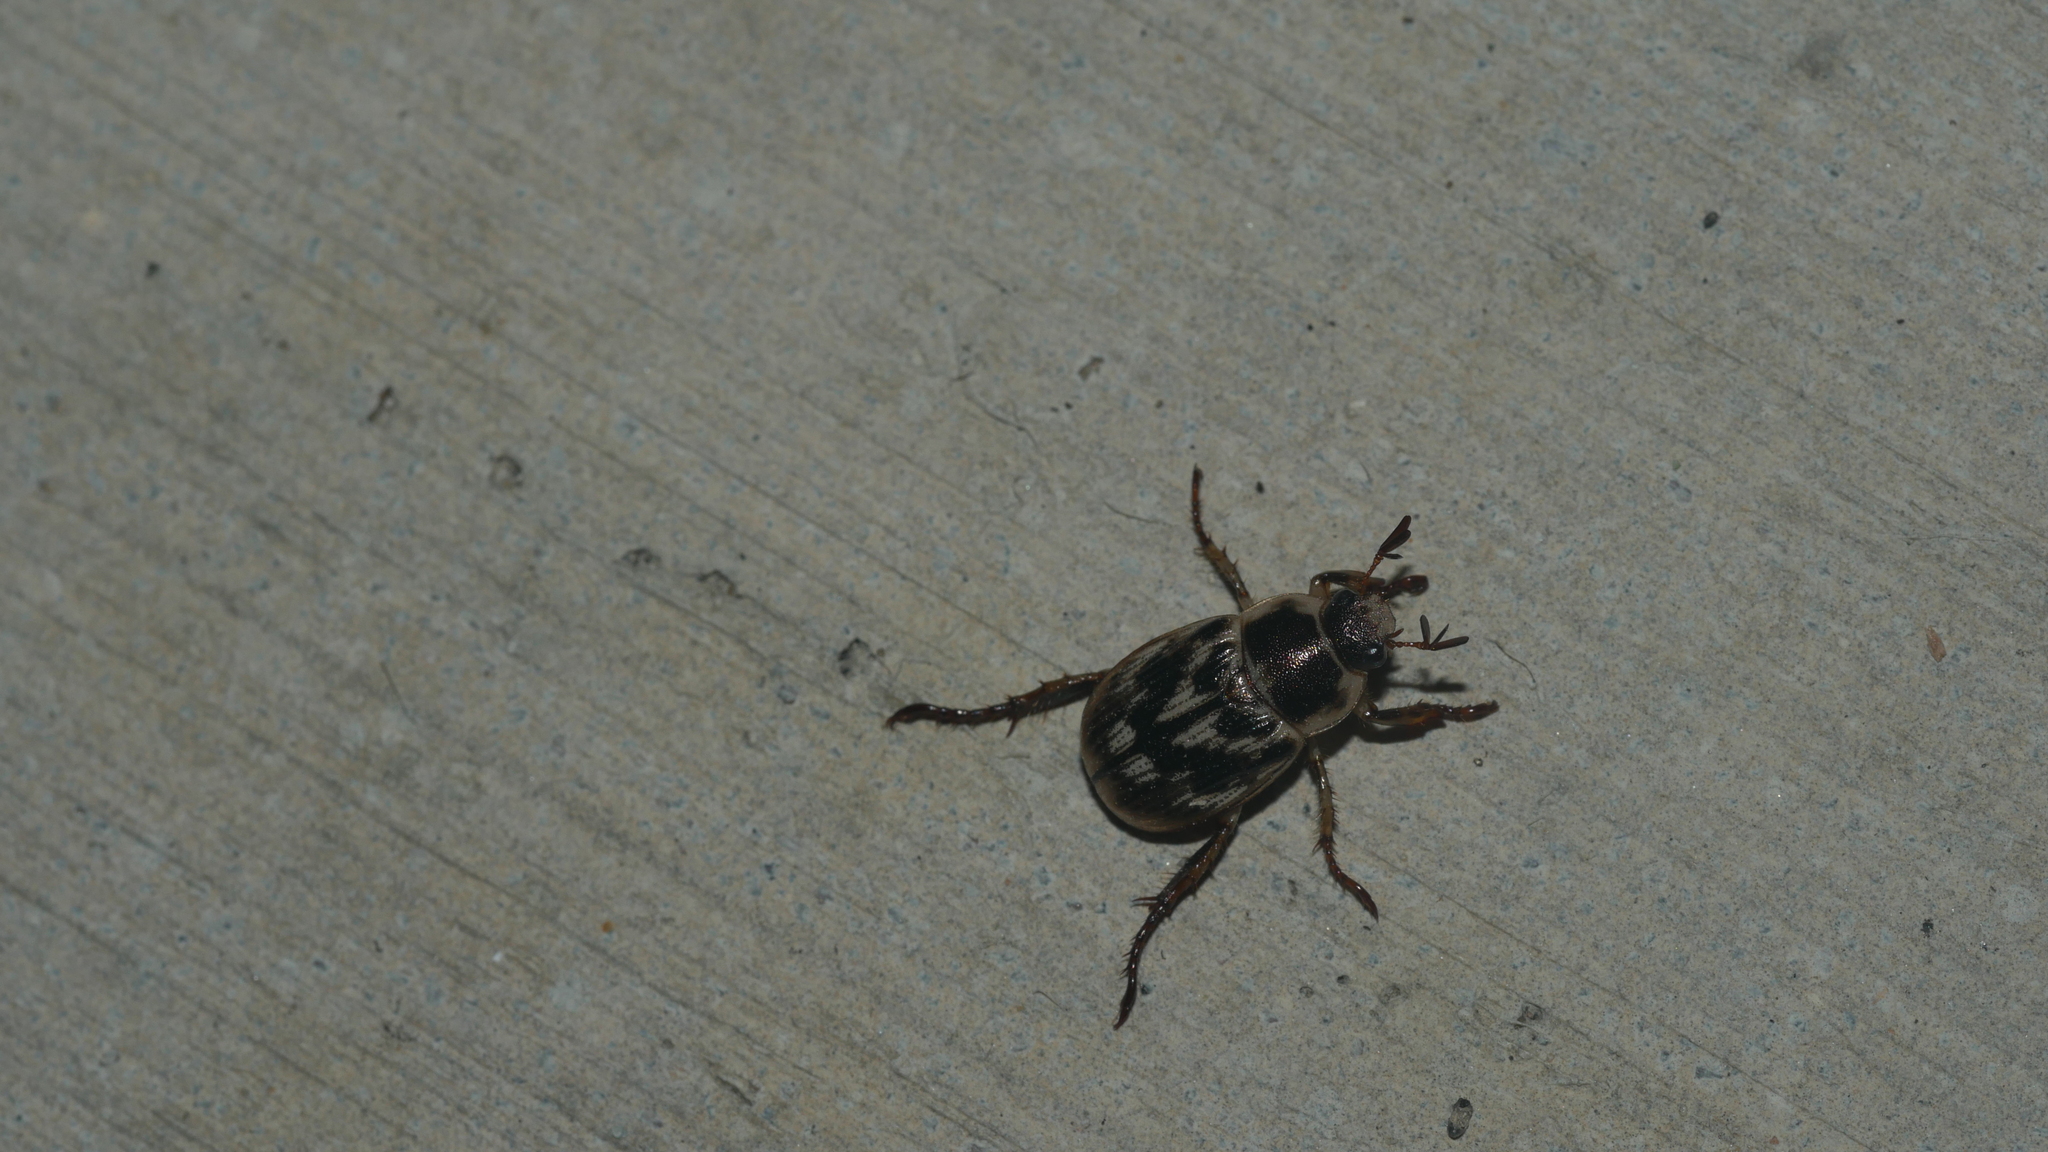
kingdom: Animalia
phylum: Arthropoda
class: Insecta
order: Coleoptera
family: Scarabaeidae
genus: Exomala
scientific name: Exomala orientalis
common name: Oriental beetle
